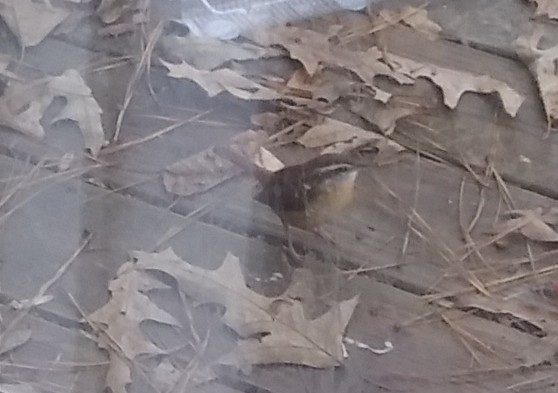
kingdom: Animalia
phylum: Chordata
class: Aves
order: Passeriformes
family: Troglodytidae
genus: Thryothorus
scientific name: Thryothorus ludovicianus
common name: Carolina wren
